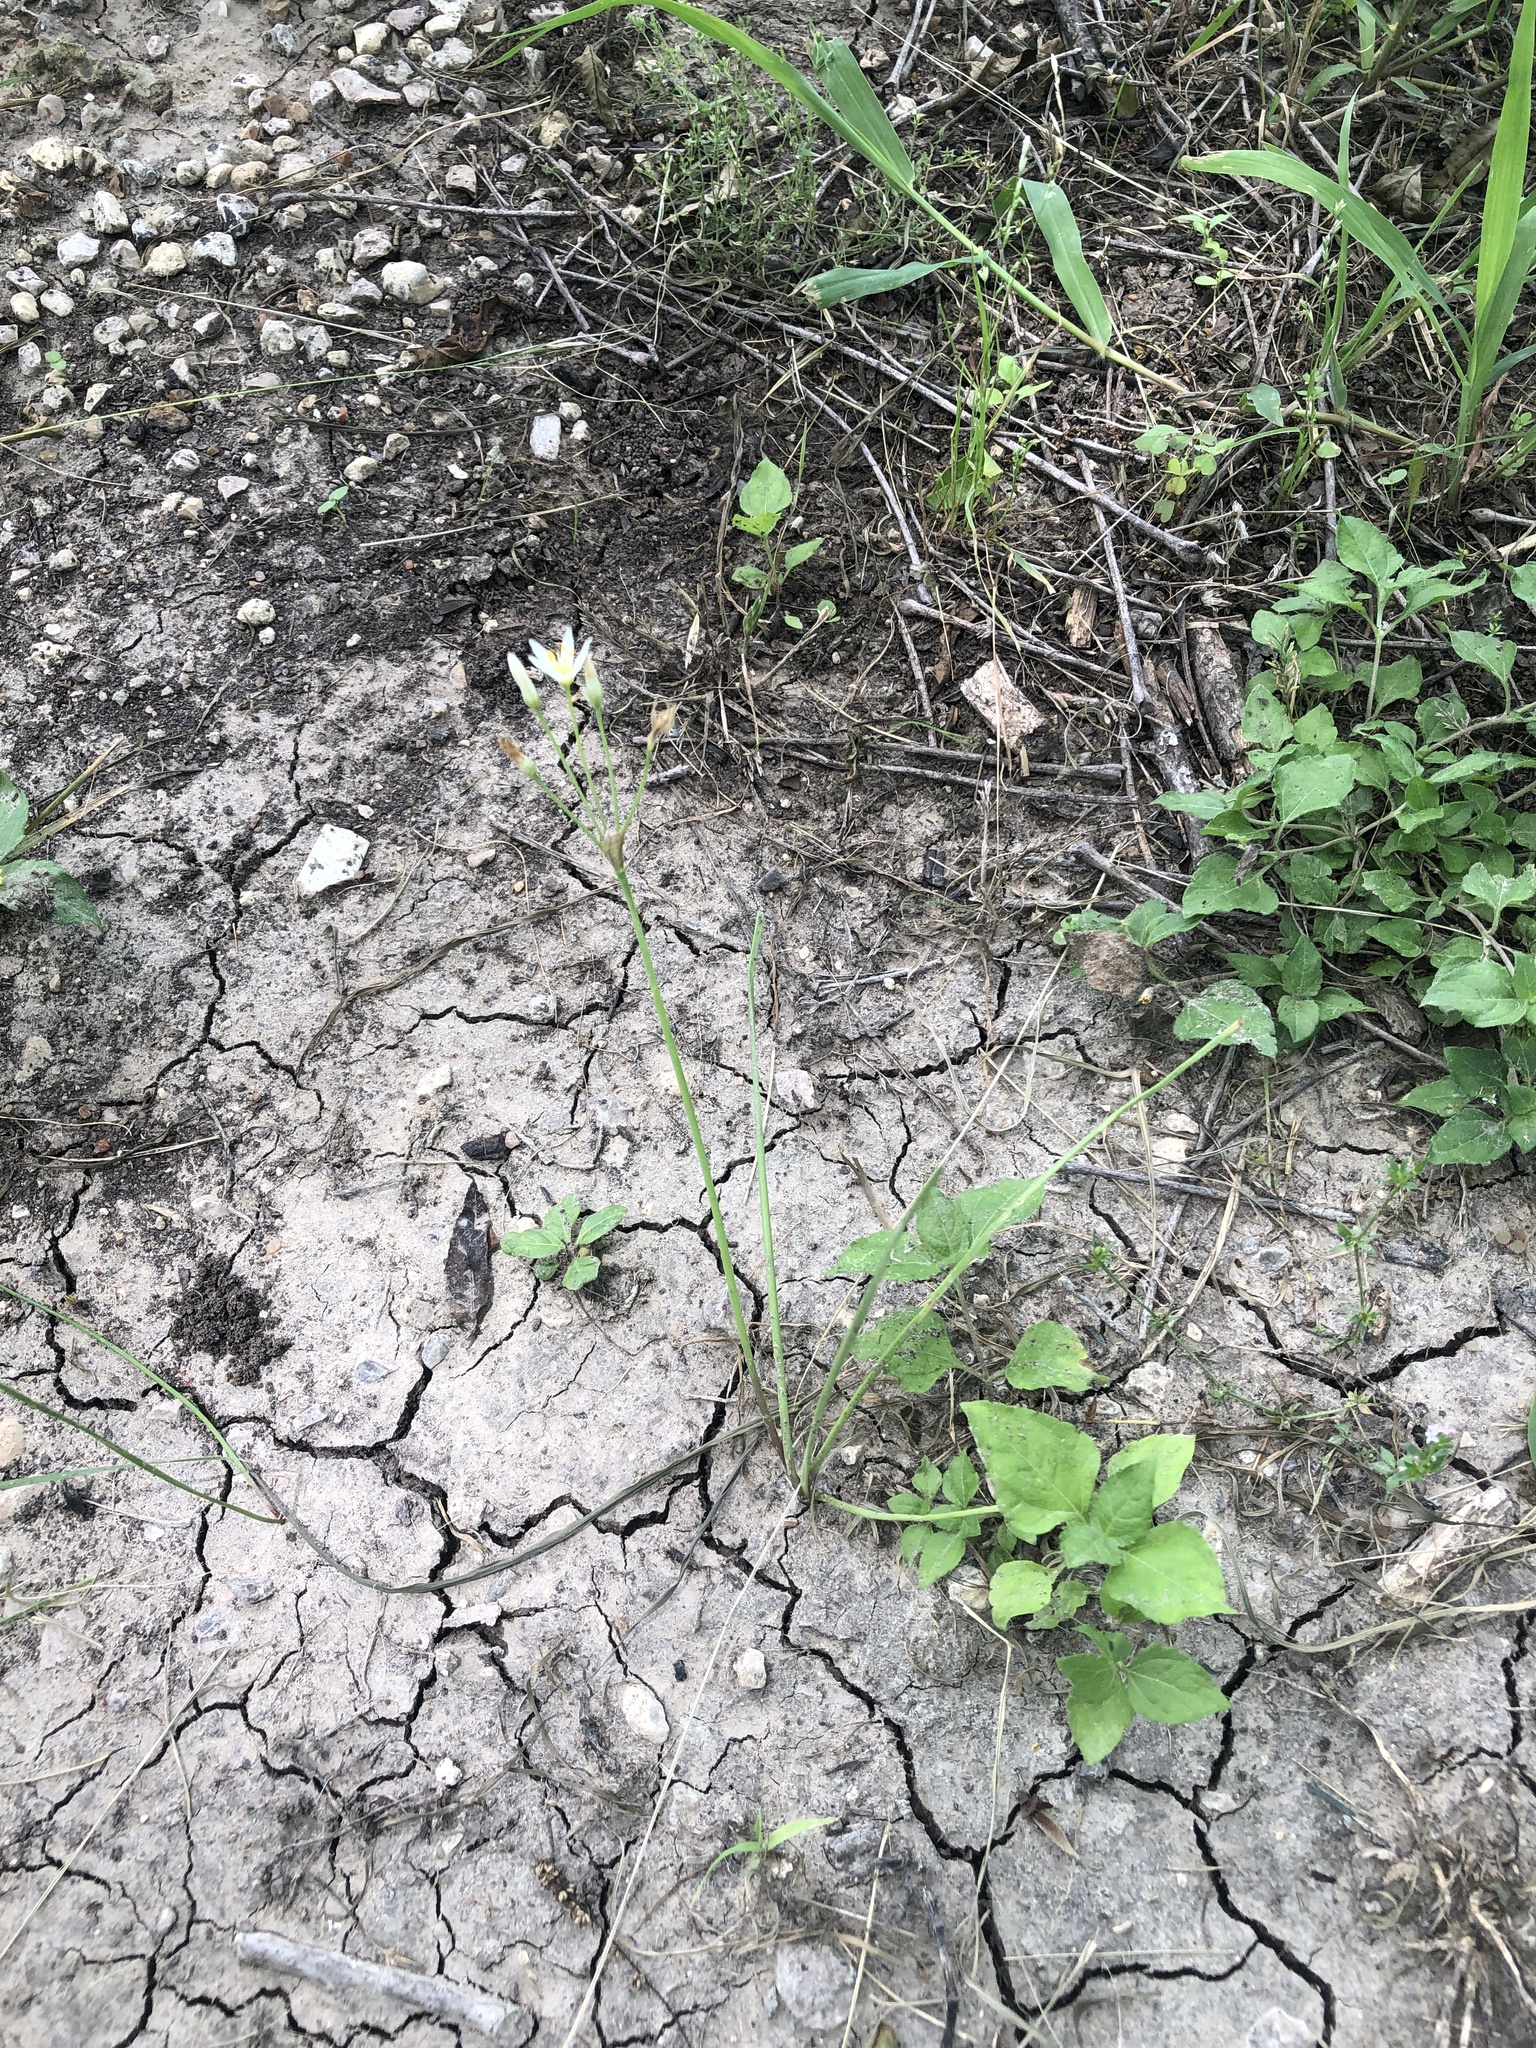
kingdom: Plantae
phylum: Tracheophyta
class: Liliopsida
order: Asparagales
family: Amaryllidaceae
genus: Nothoscordum
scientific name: Nothoscordum bivalve
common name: Crow-poison
